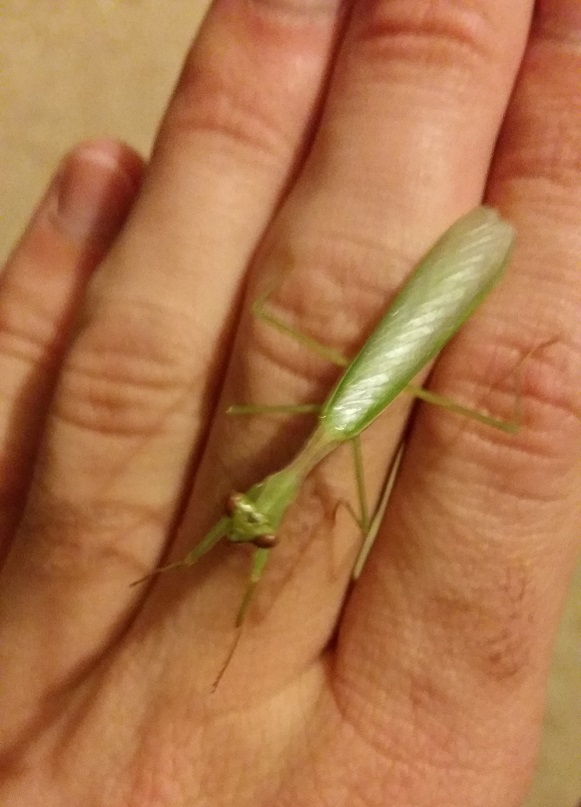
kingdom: Animalia
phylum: Arthropoda
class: Insecta
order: Mantodea
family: Miomantidae
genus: Miomantis
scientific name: Miomantis caffra
